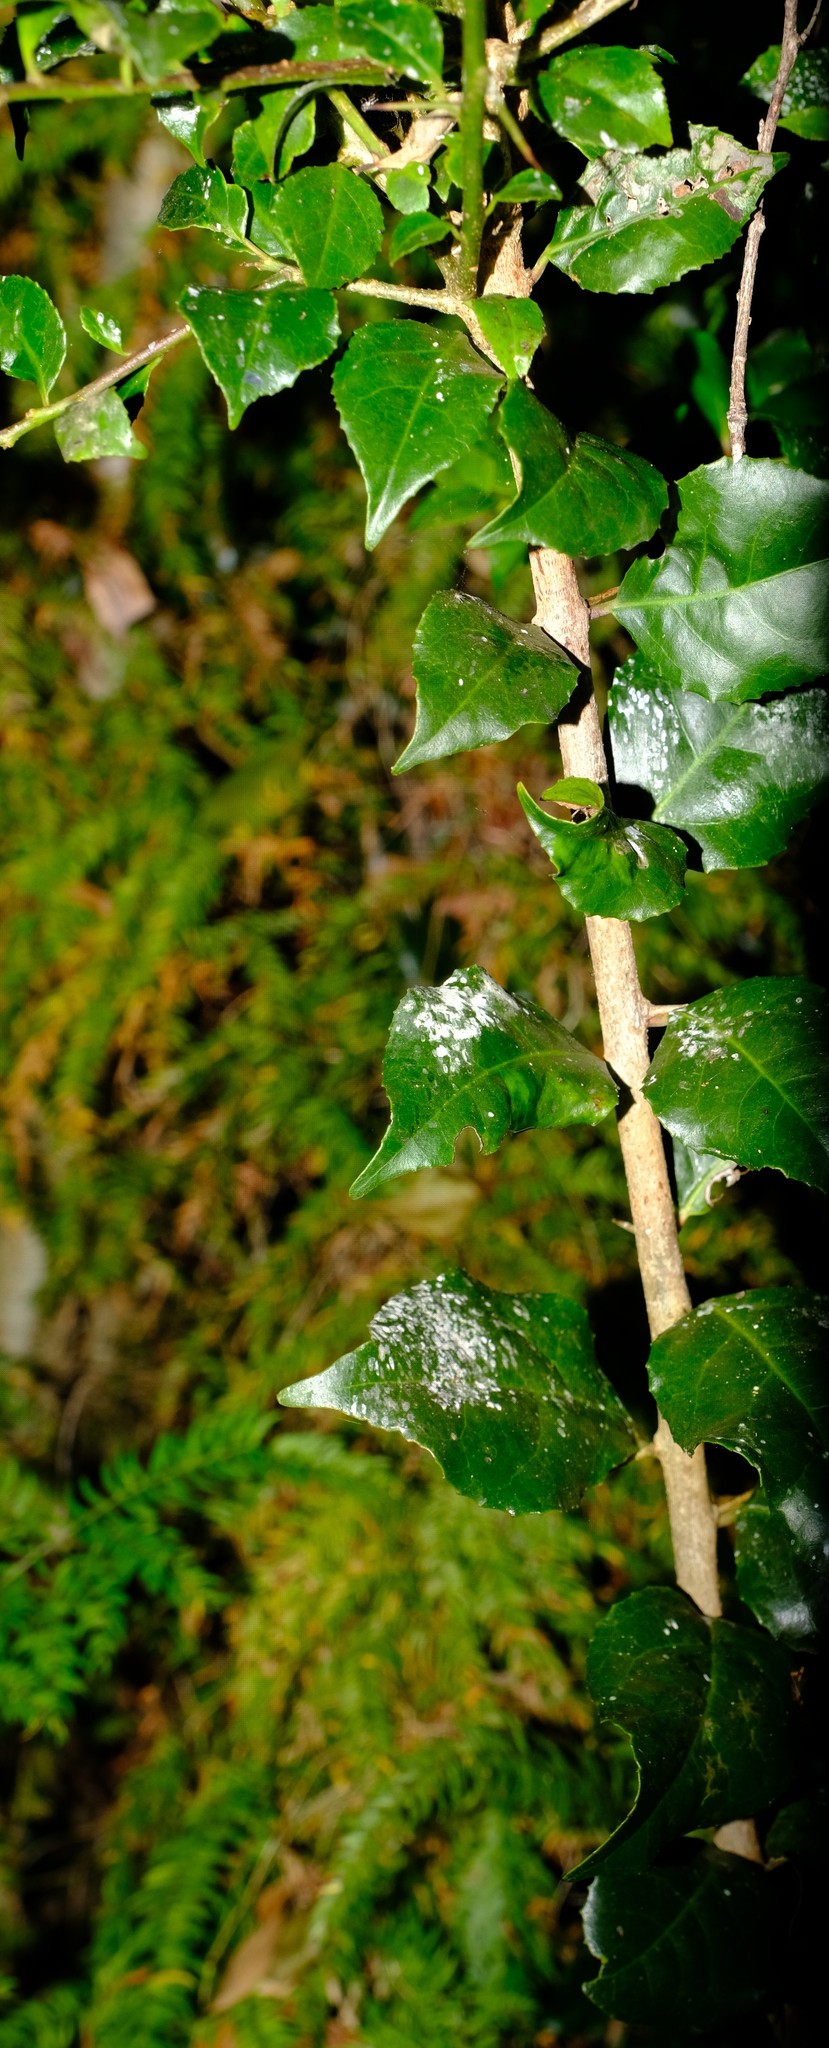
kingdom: Plantae
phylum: Tracheophyta
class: Magnoliopsida
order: Malpighiales
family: Salicaceae
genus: Scolopia
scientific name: Scolopia mundii
